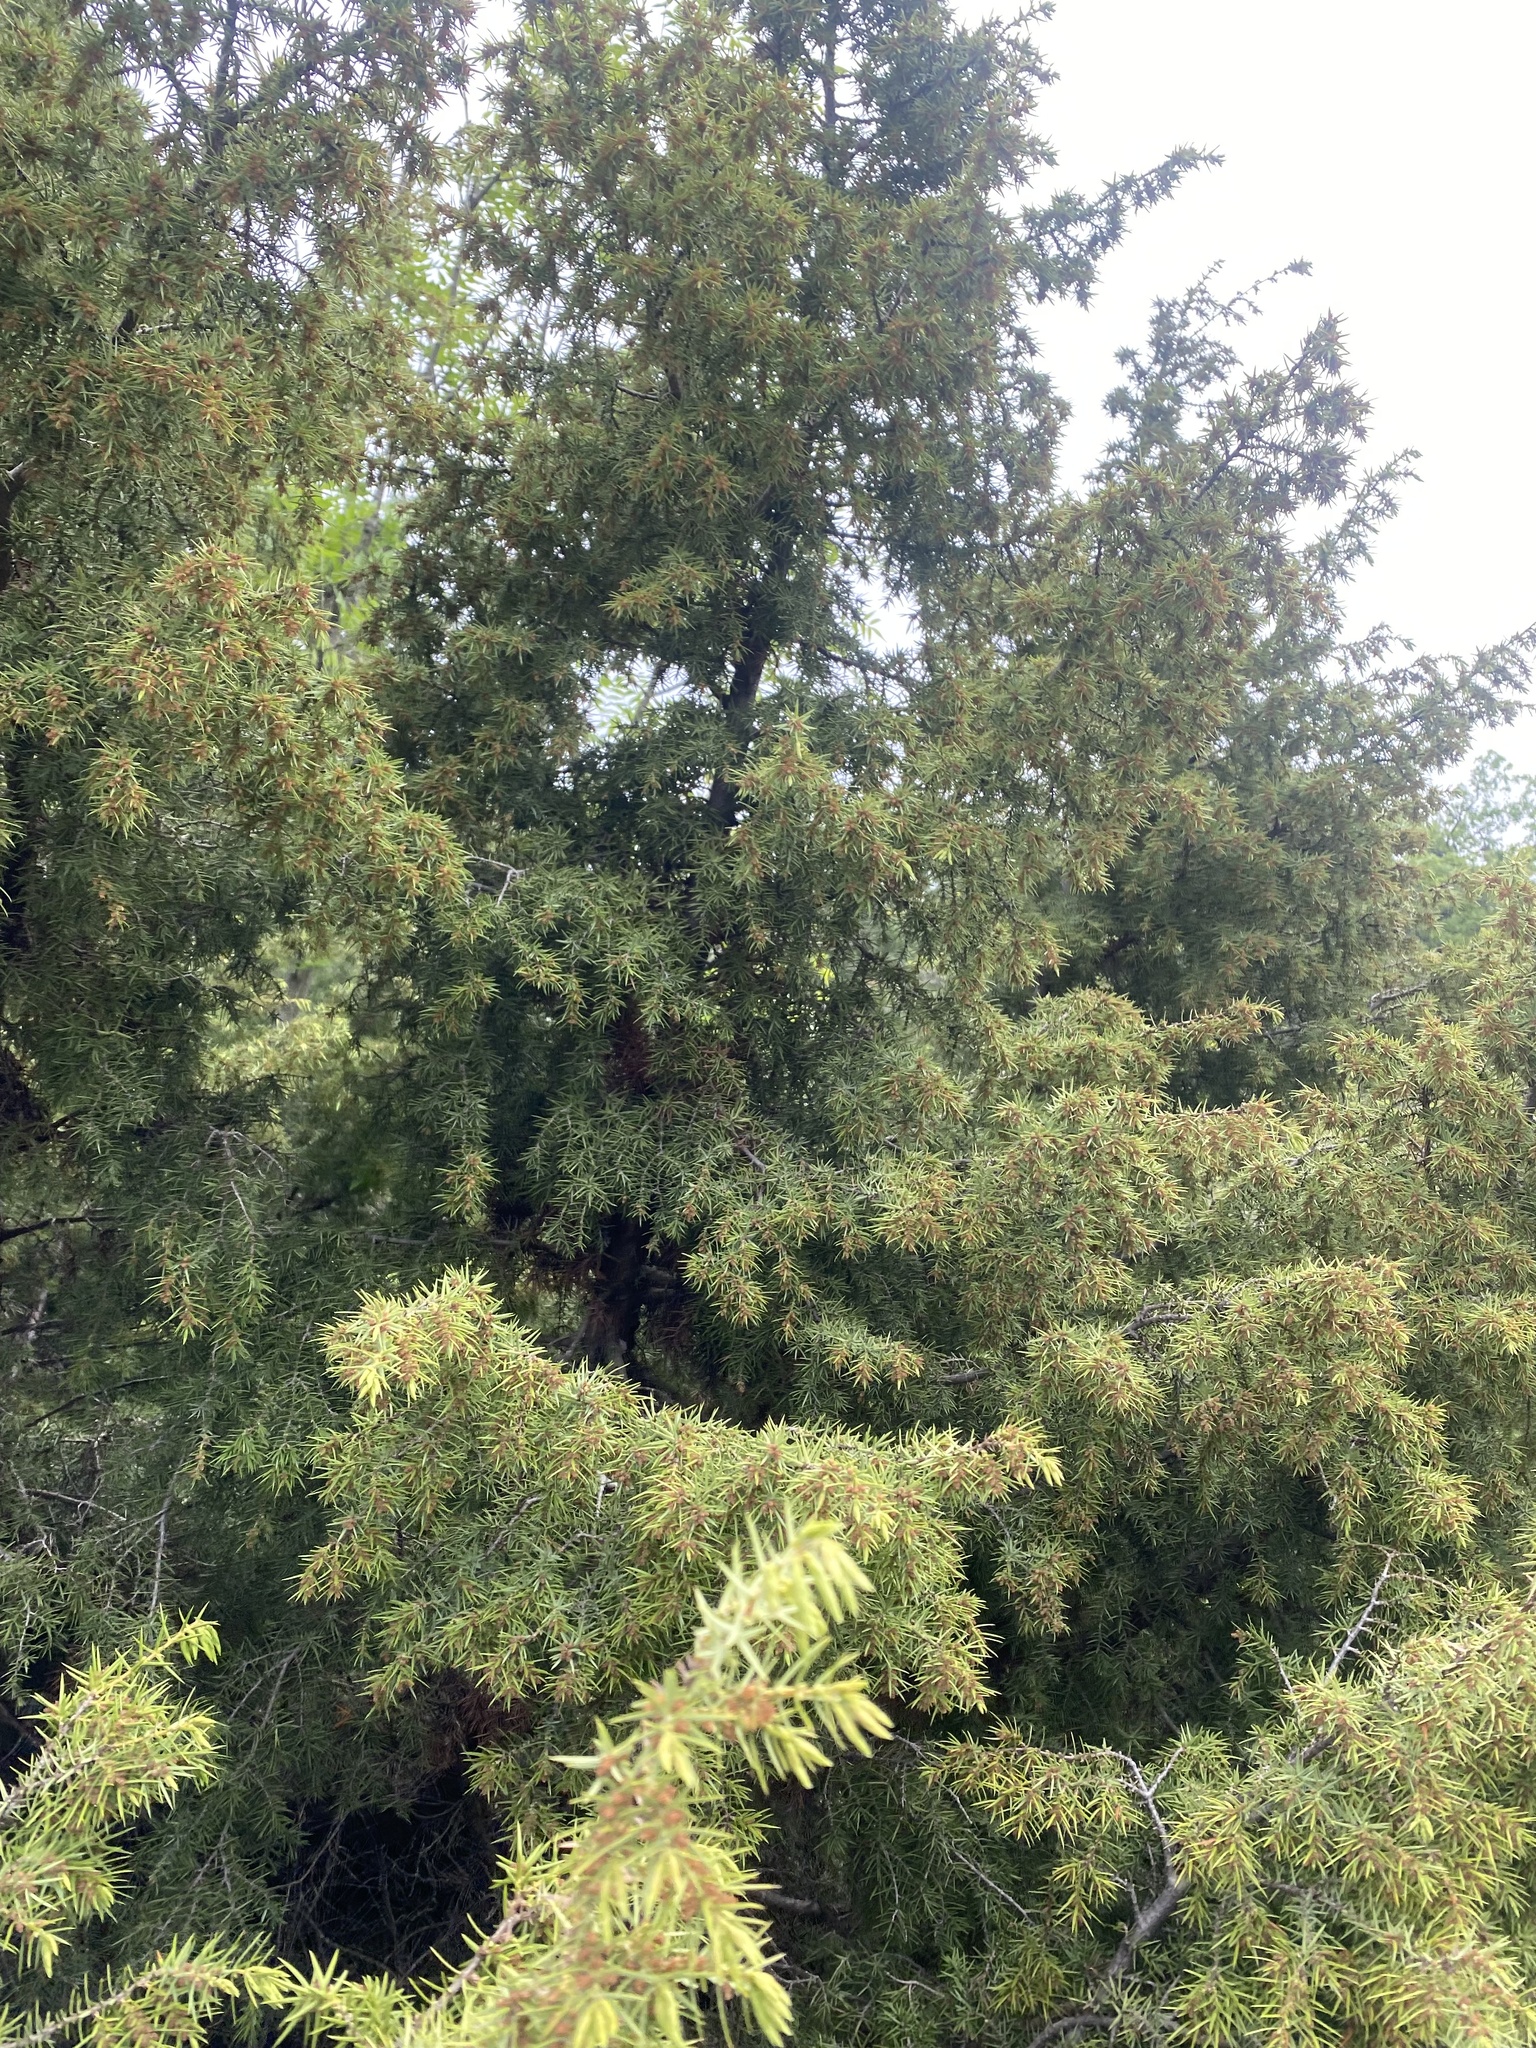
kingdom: Plantae
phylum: Tracheophyta
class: Pinopsida
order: Pinales
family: Cupressaceae
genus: Juniperus
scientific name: Juniperus oxycedrus
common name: Prickly juniper
